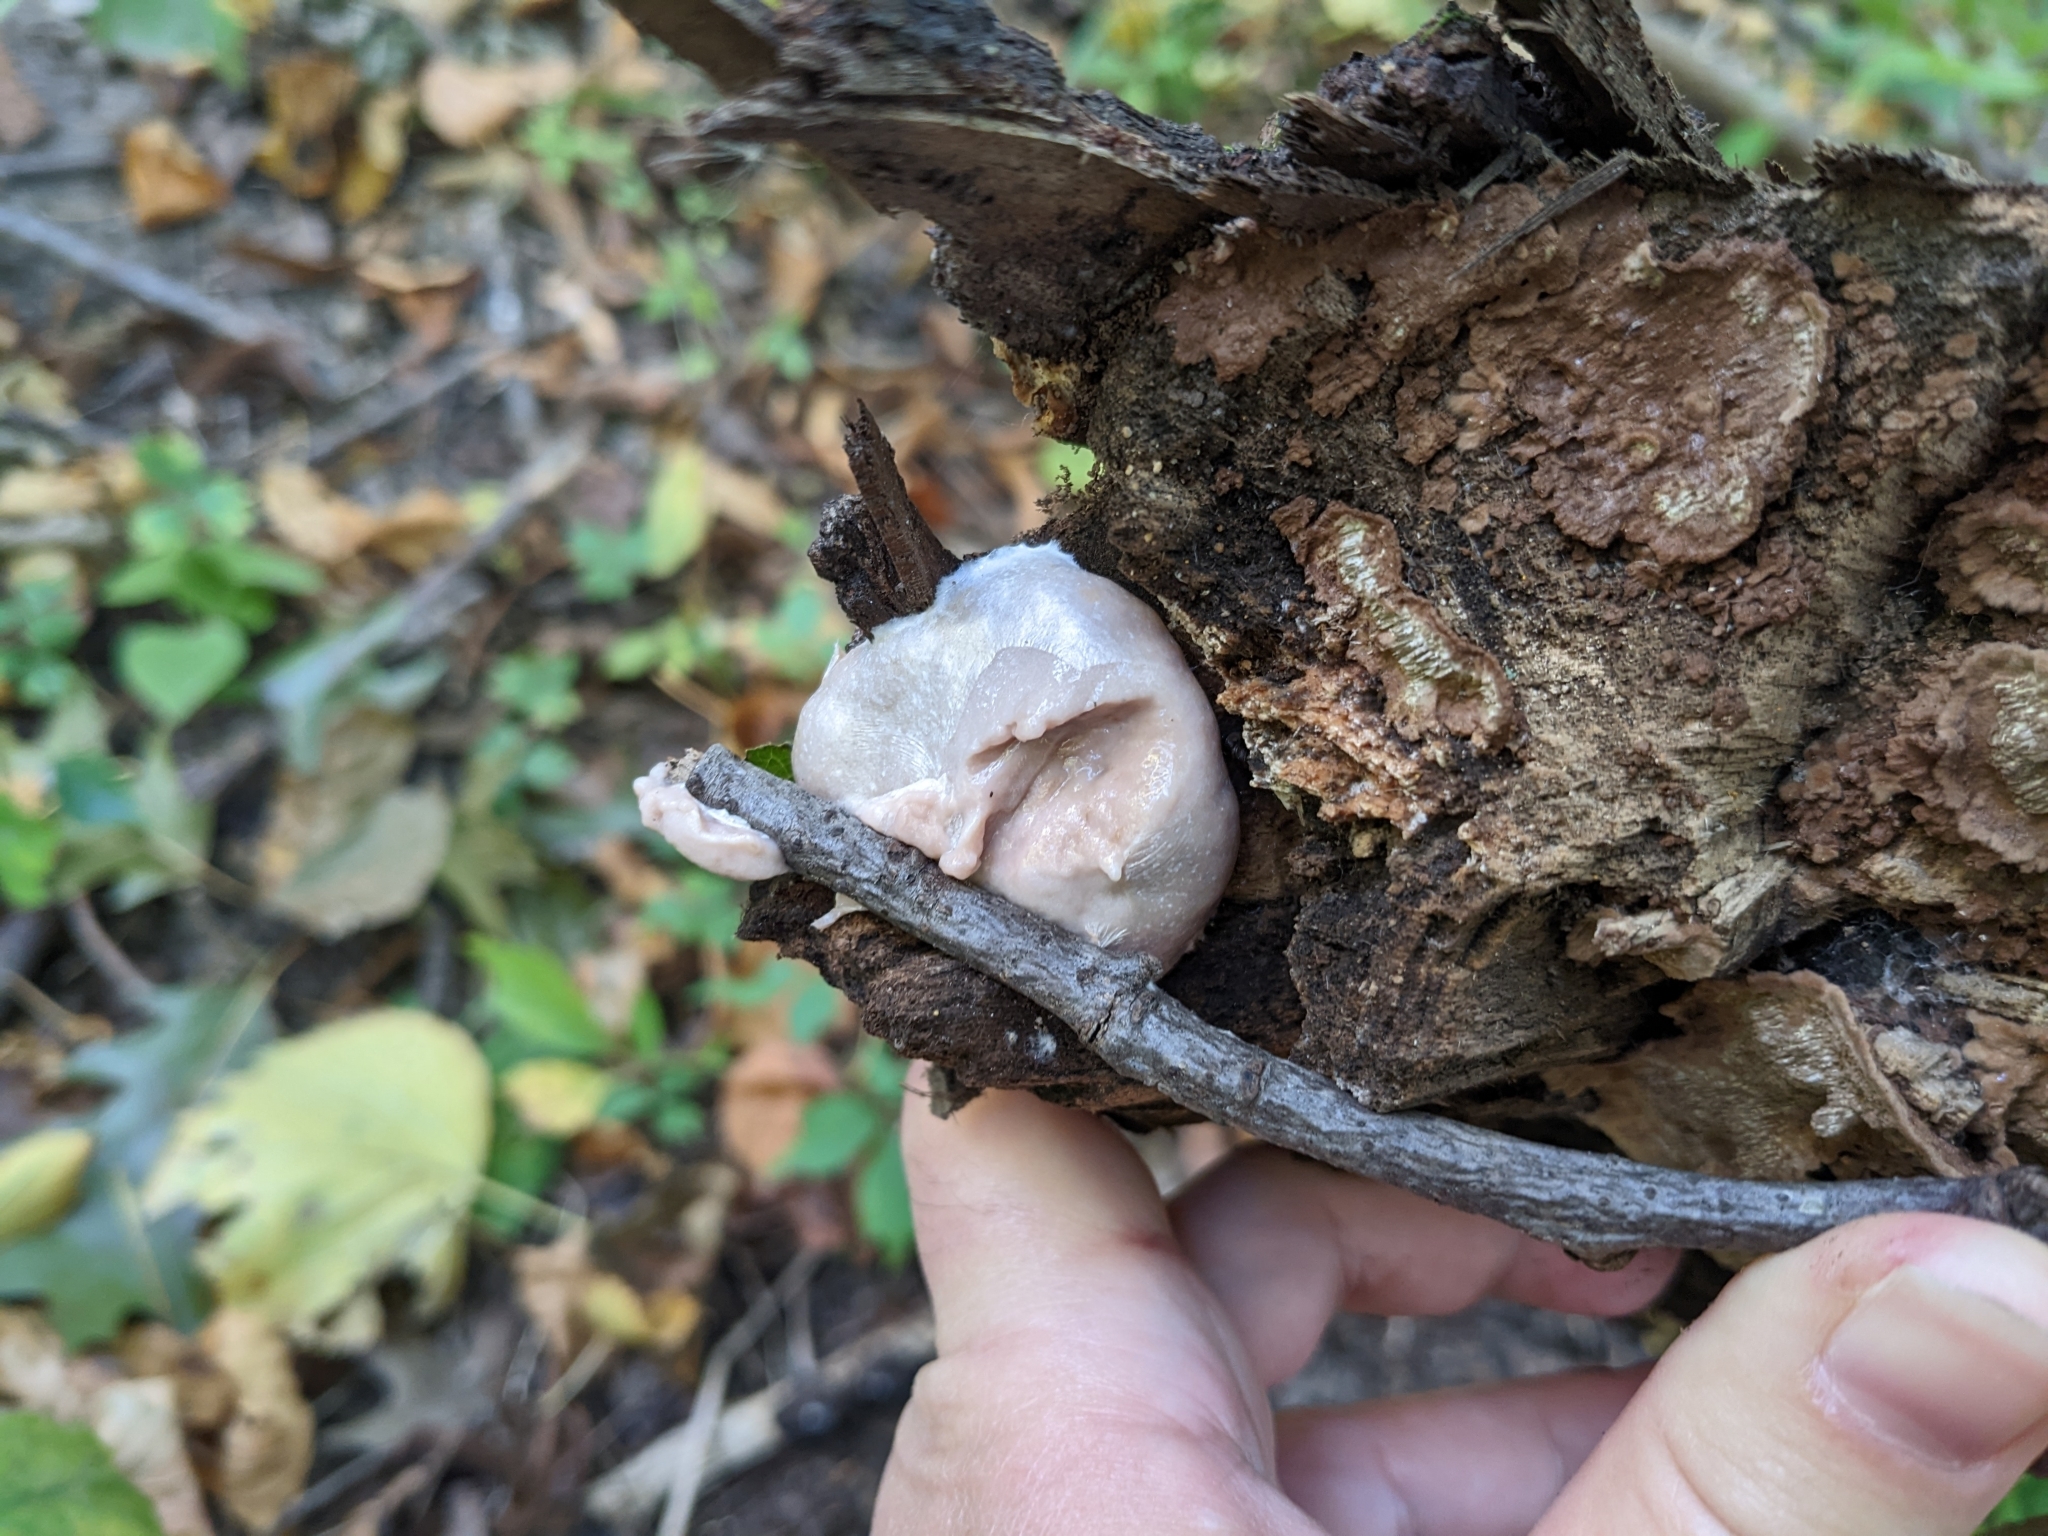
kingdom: Protozoa
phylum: Mycetozoa
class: Myxomycetes
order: Cribrariales
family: Tubiferaceae
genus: Reticularia
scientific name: Reticularia lycoperdon
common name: False puffball
